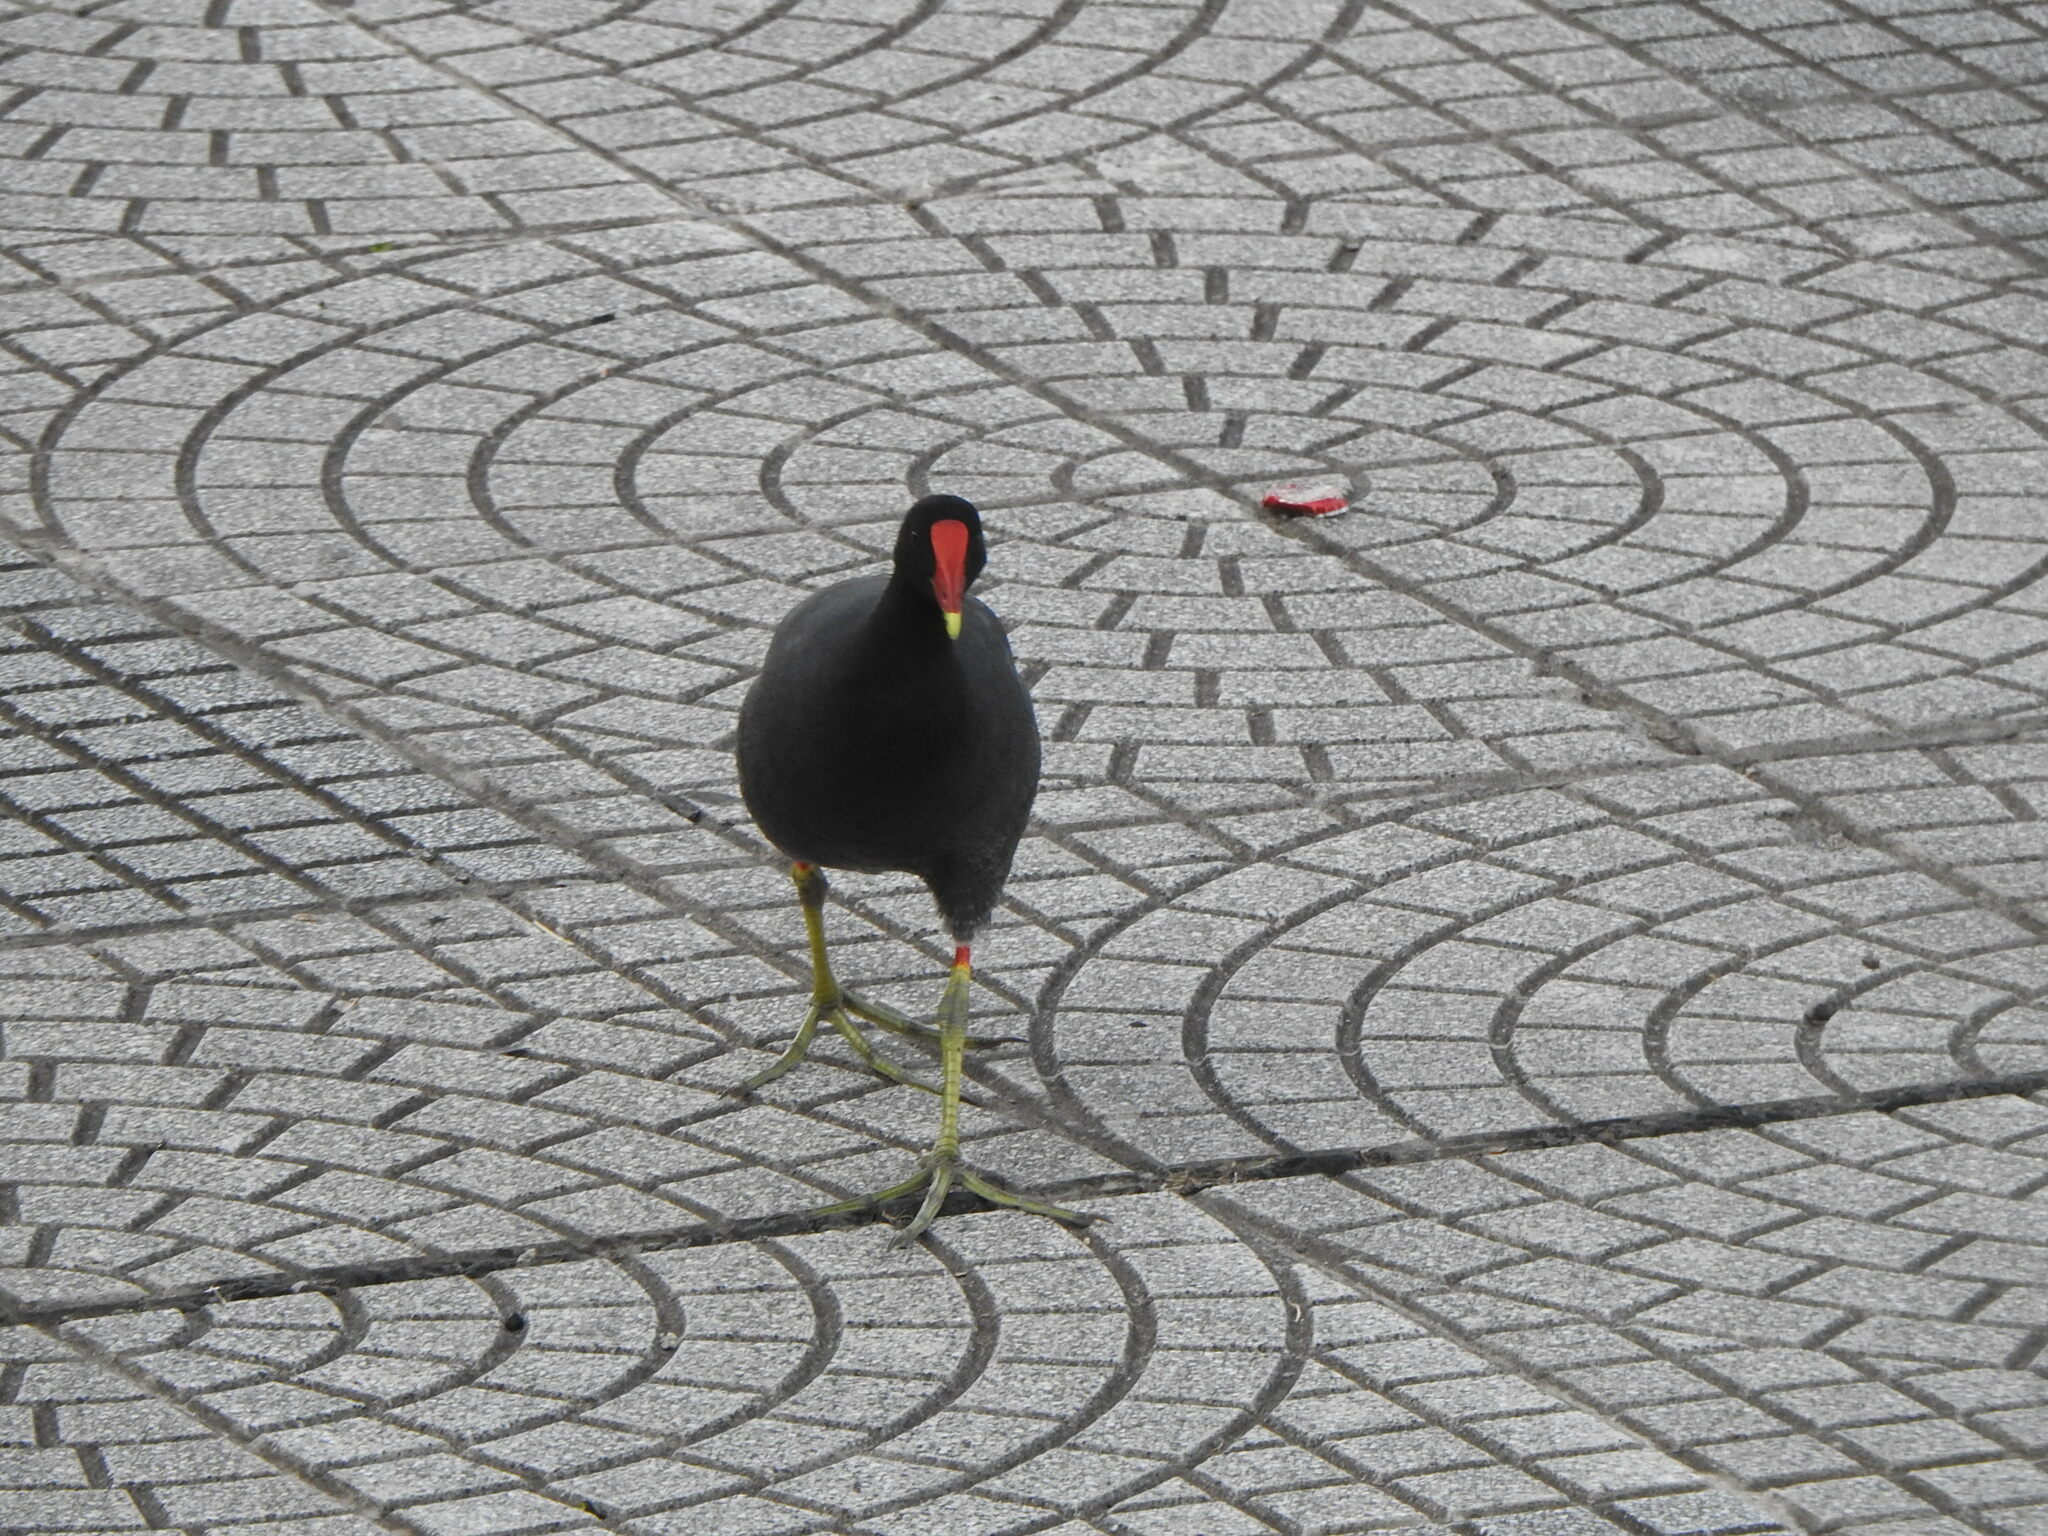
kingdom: Animalia
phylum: Chordata
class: Aves
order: Gruiformes
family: Rallidae
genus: Gallinula
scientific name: Gallinula chloropus
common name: Common moorhen
